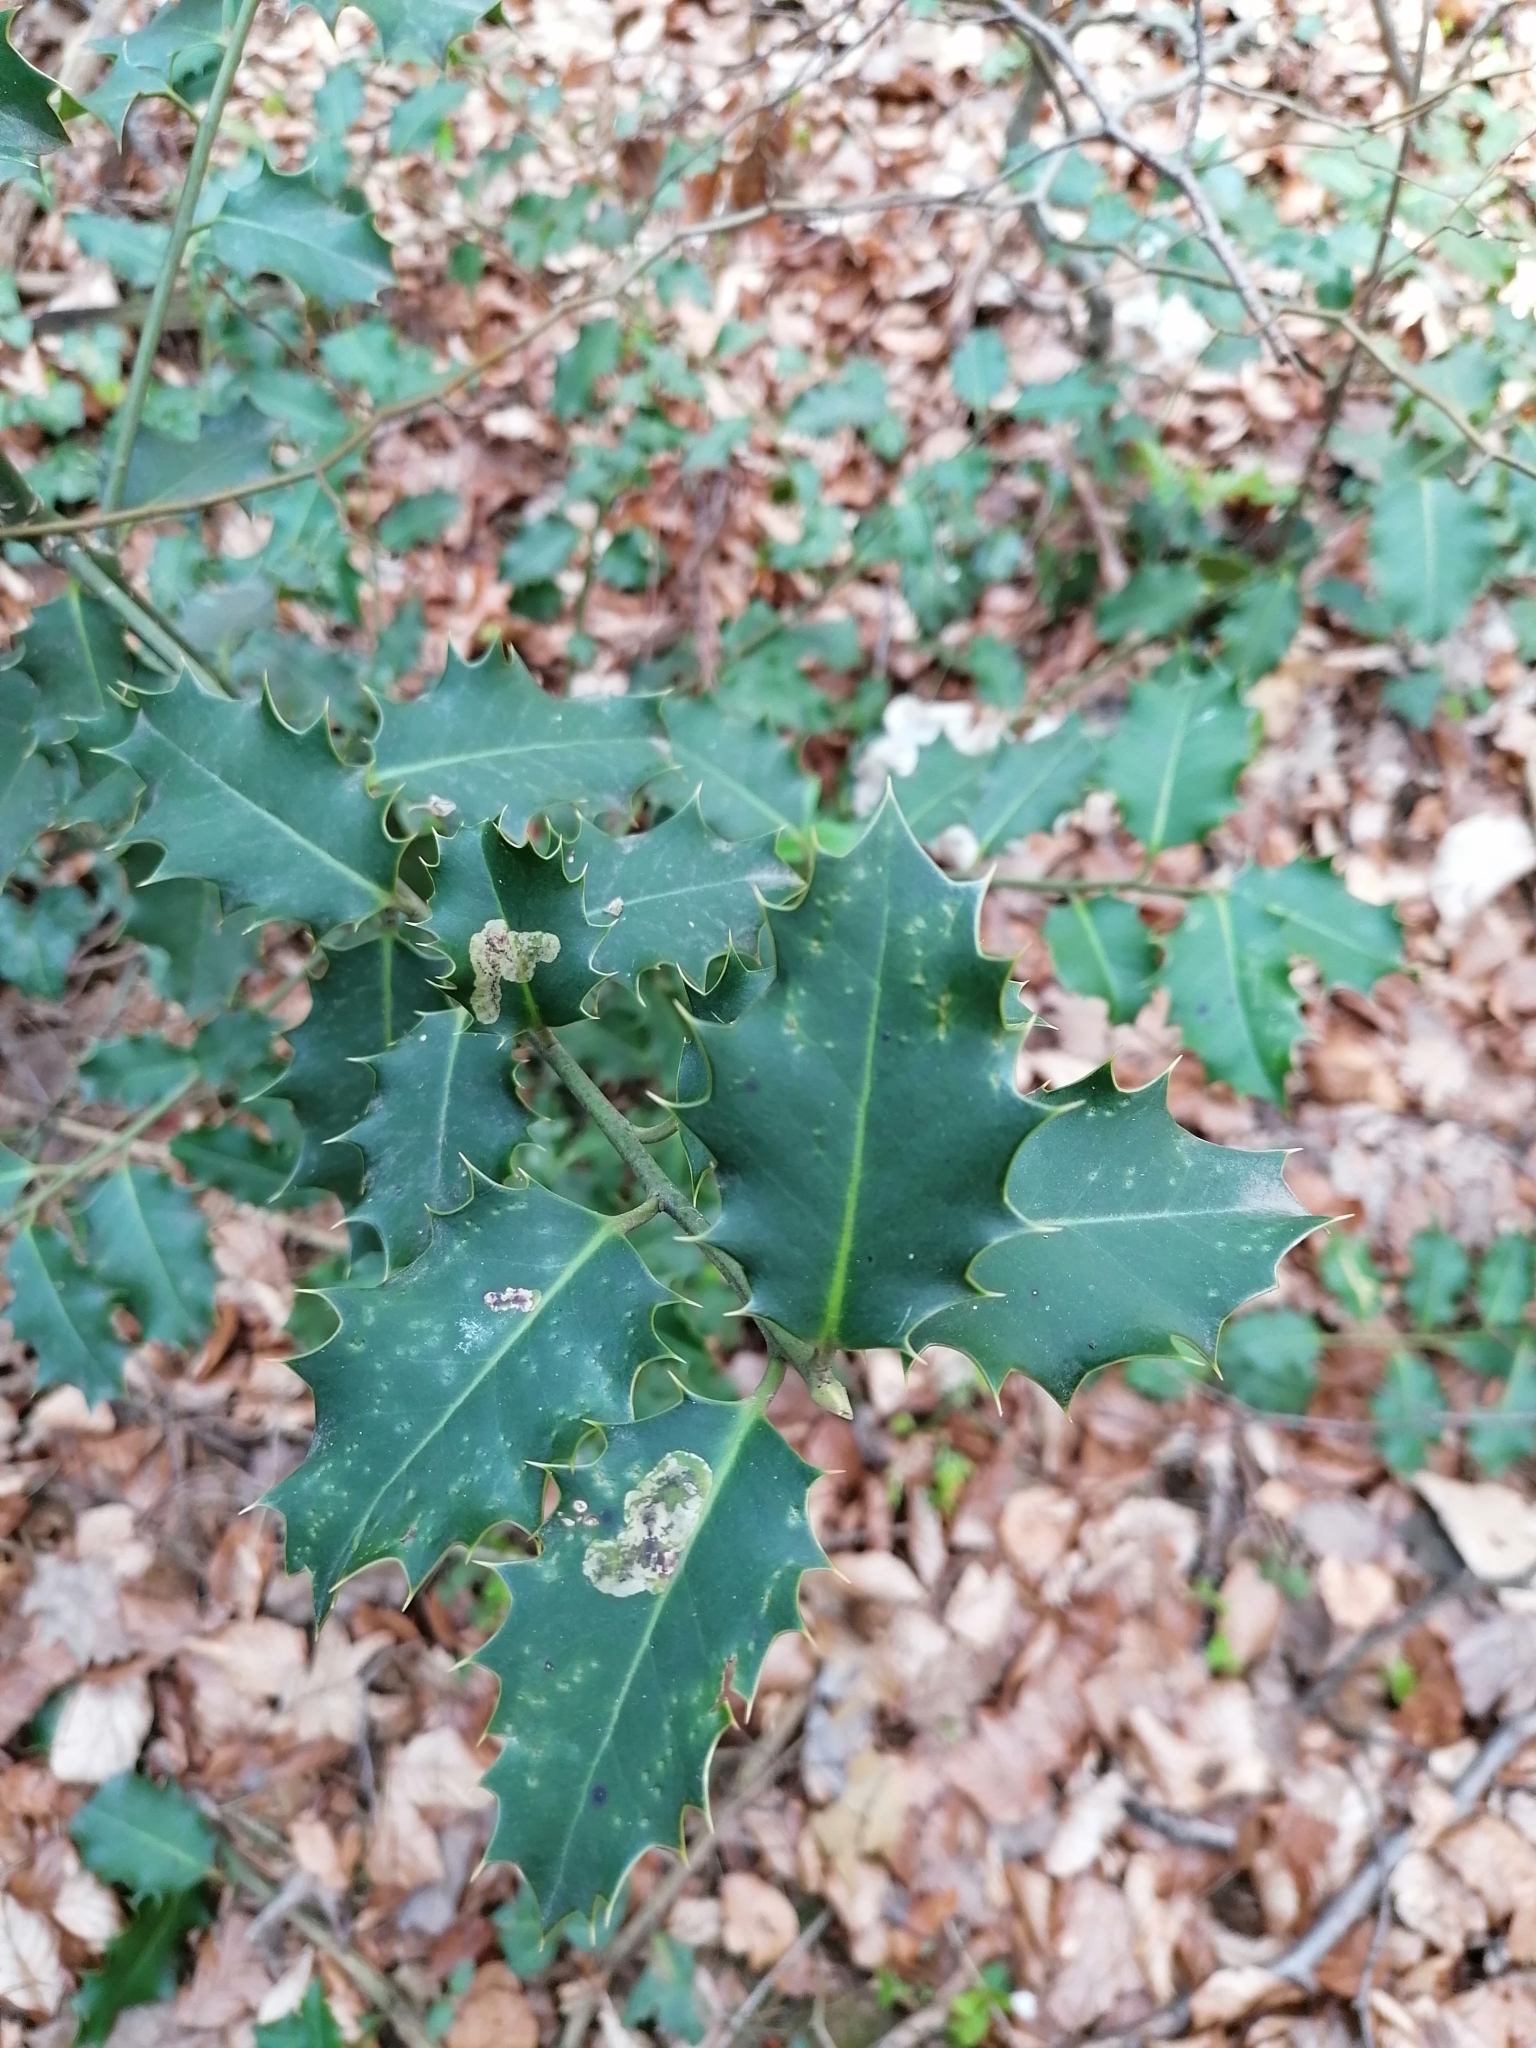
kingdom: Plantae
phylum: Tracheophyta
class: Magnoliopsida
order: Aquifoliales
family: Aquifoliaceae
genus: Ilex
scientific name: Ilex aquifolium
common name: English holly
